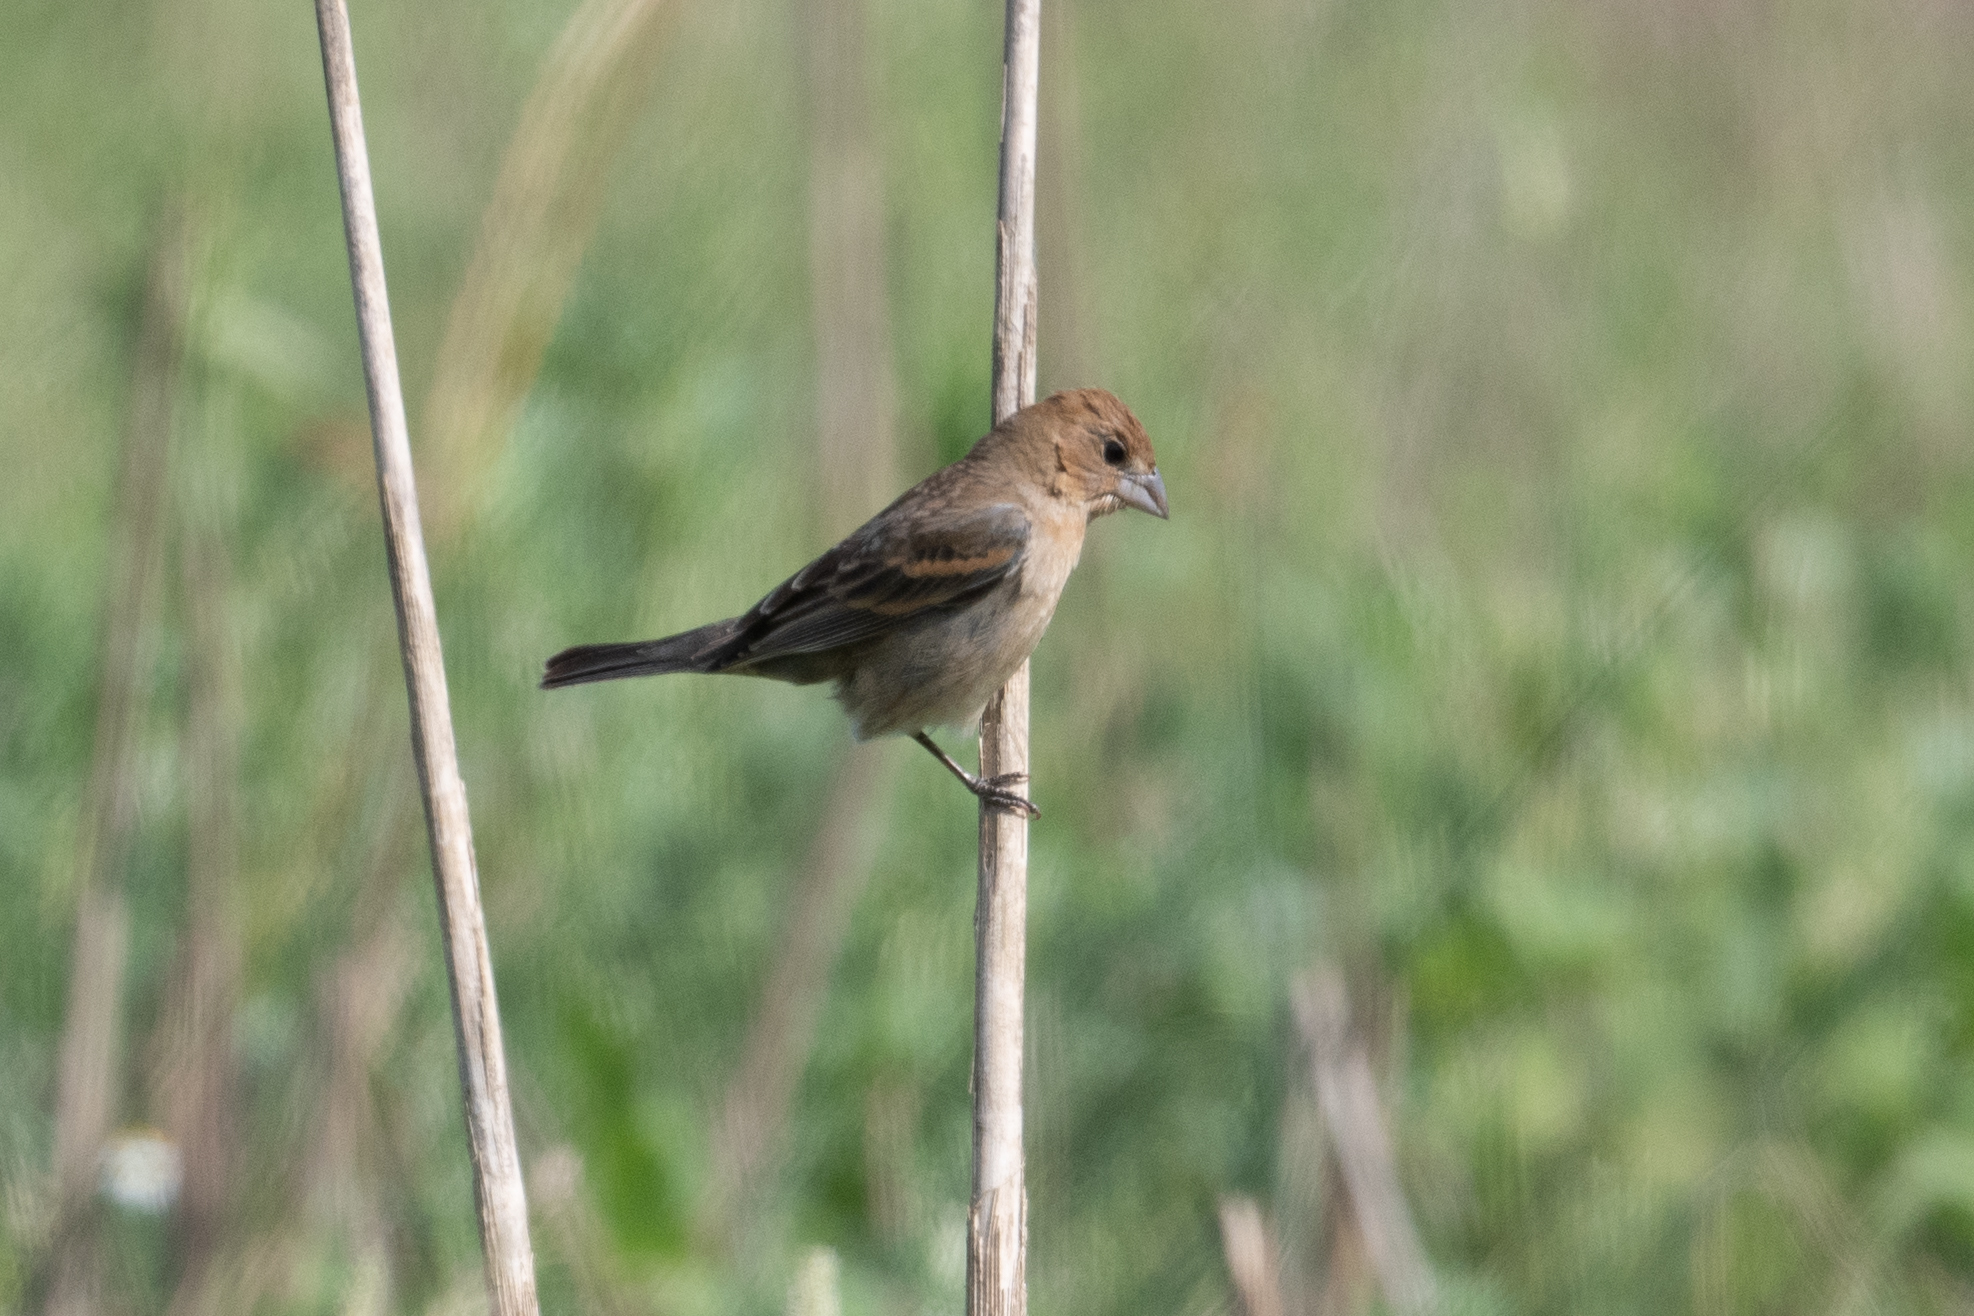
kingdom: Animalia
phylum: Chordata
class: Aves
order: Passeriformes
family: Cardinalidae
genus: Passerina
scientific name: Passerina caerulea
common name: Blue grosbeak
